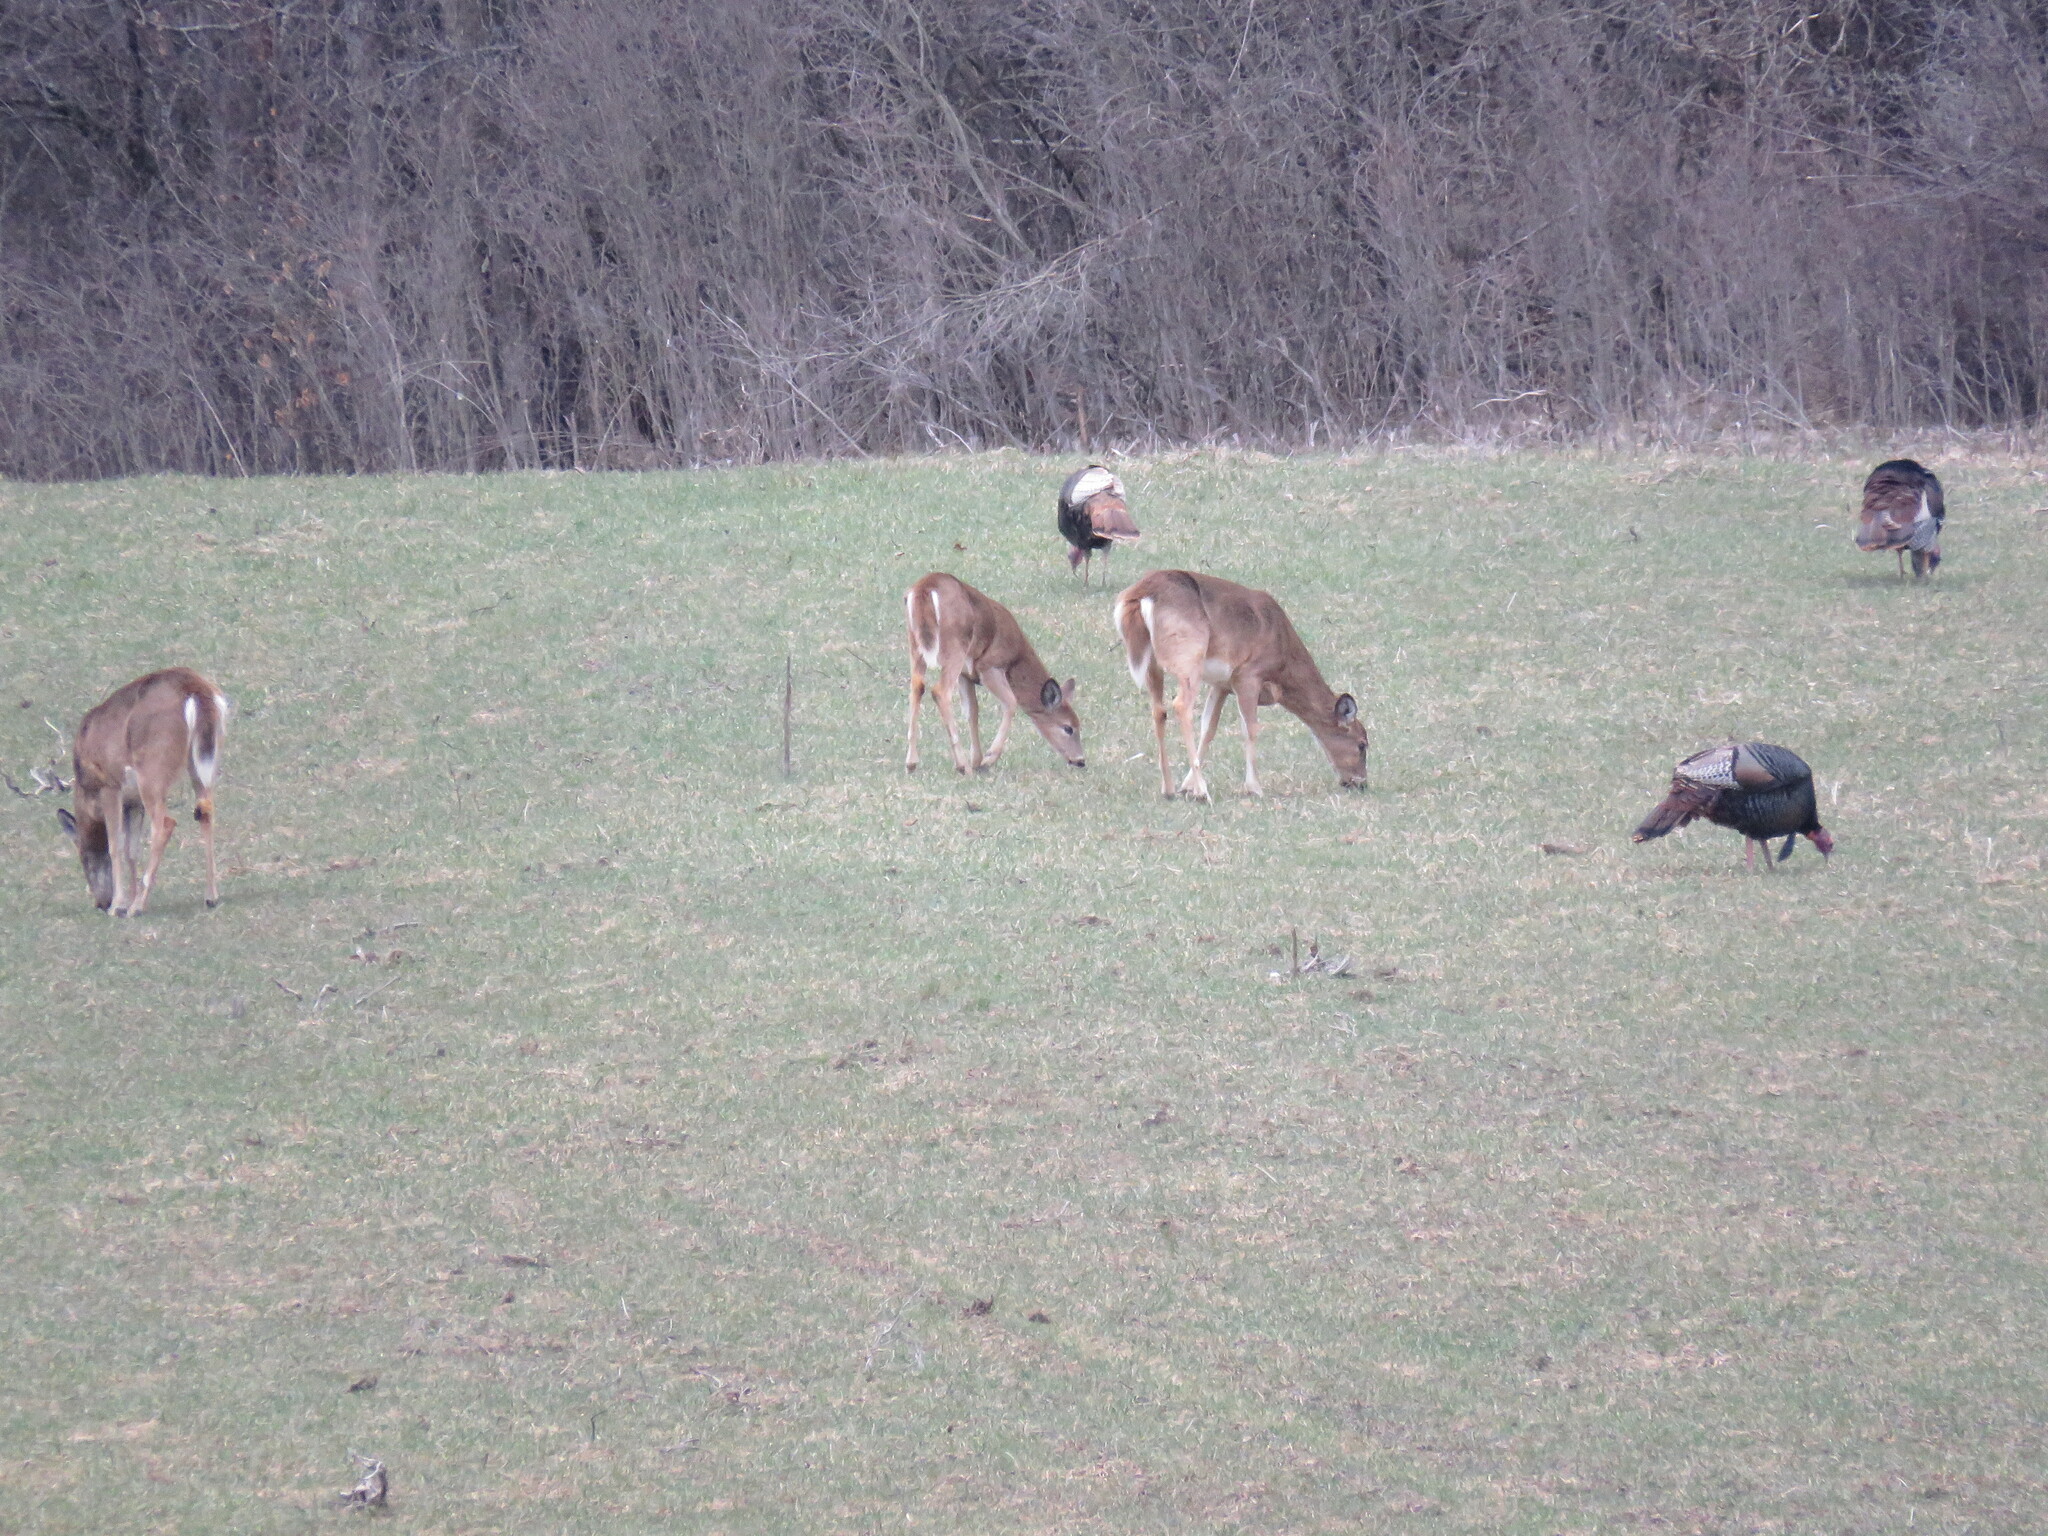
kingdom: Animalia
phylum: Chordata
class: Mammalia
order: Artiodactyla
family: Cervidae
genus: Odocoileus
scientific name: Odocoileus virginianus
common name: White-tailed deer
